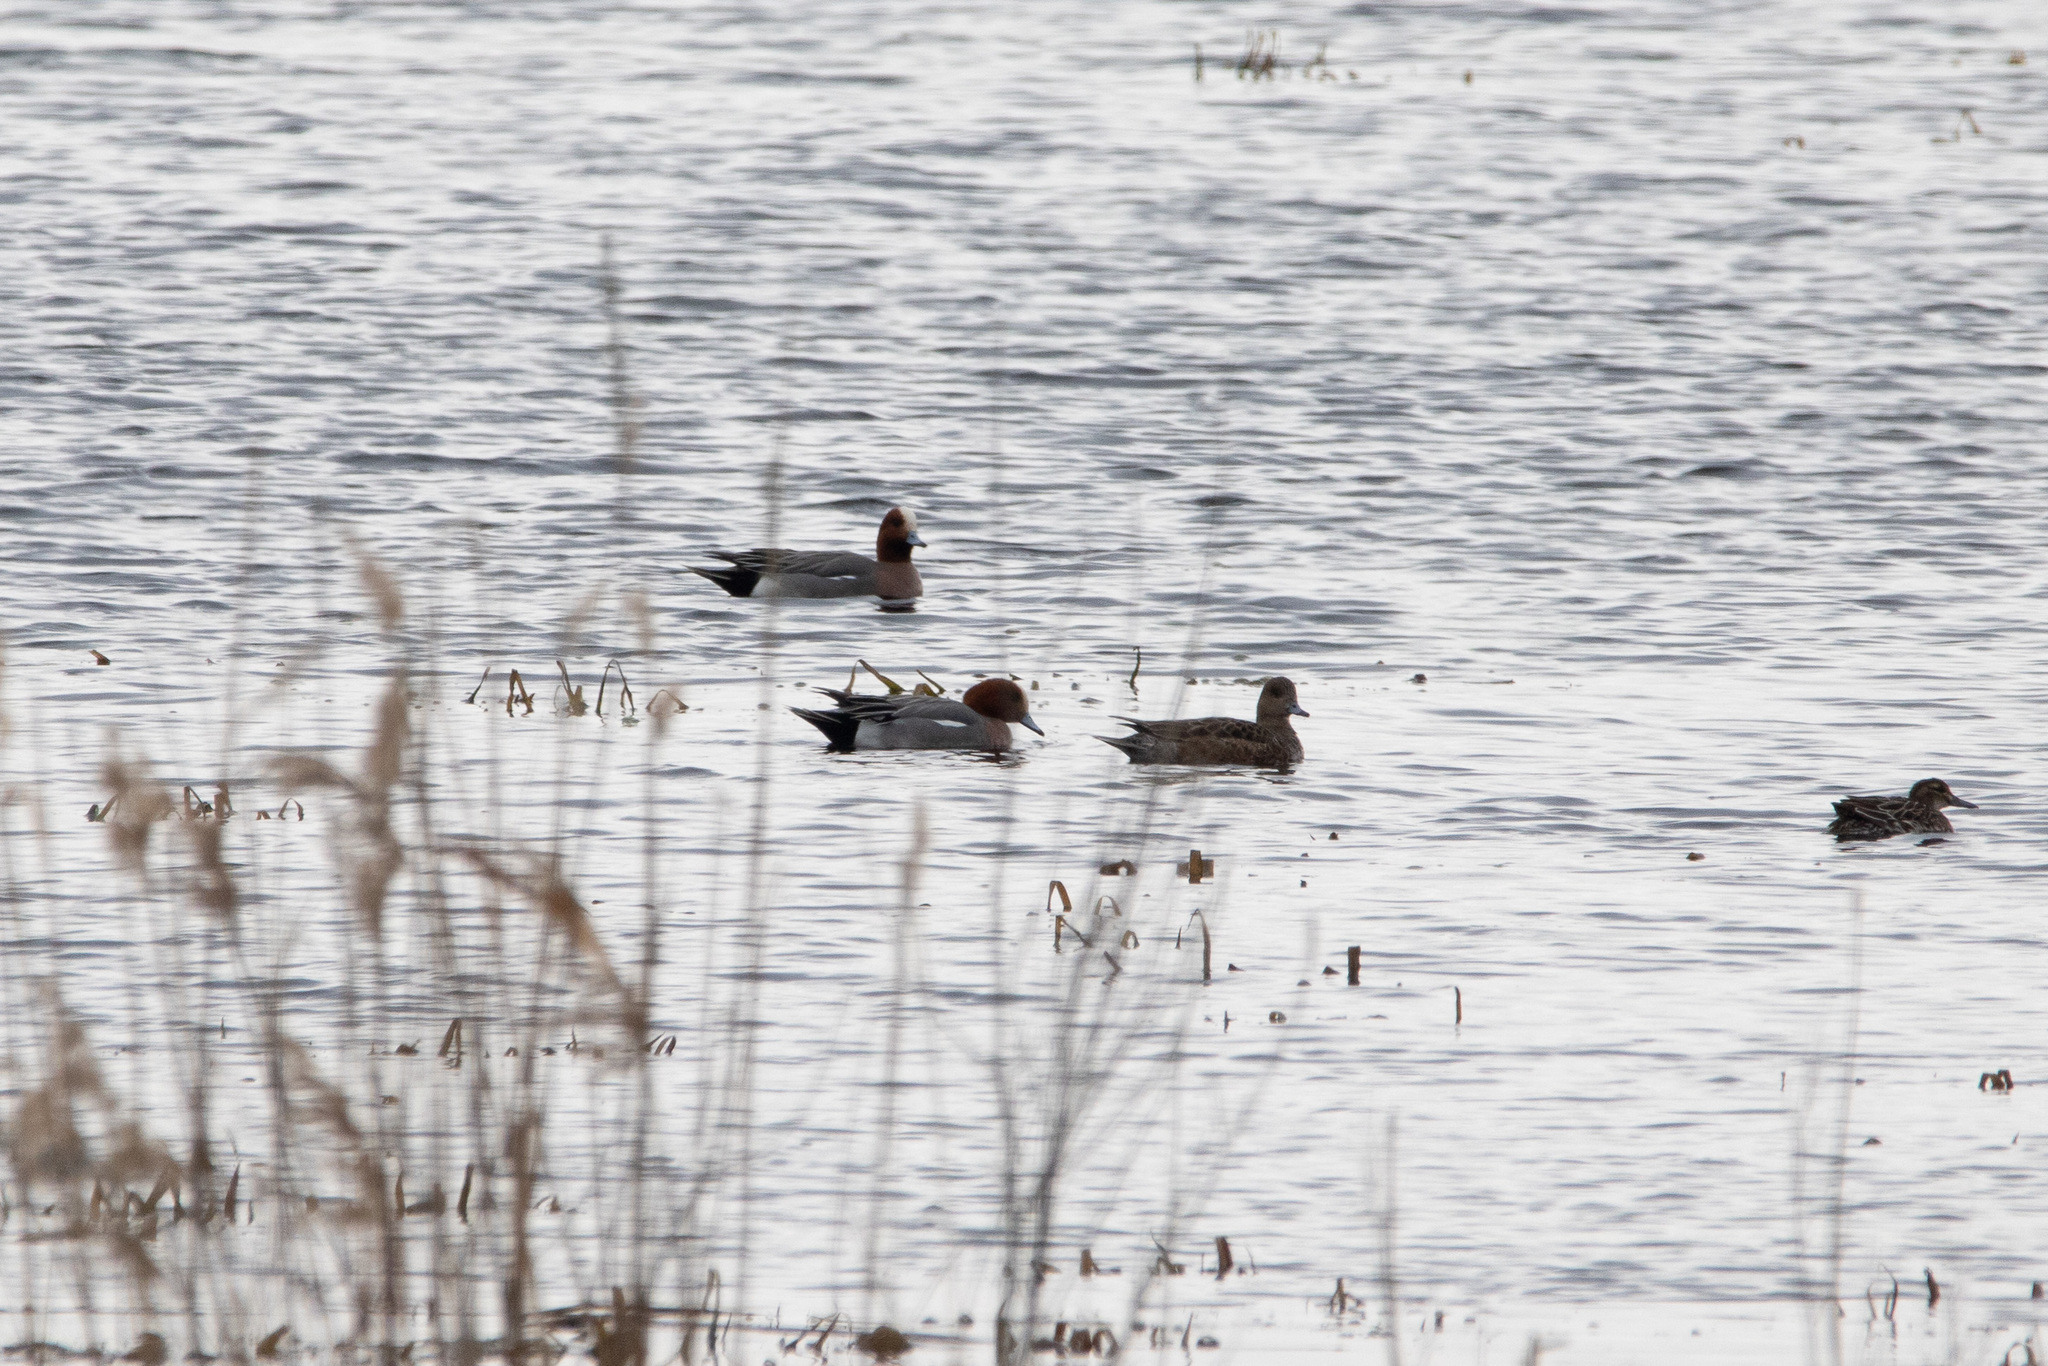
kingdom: Animalia
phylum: Chordata
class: Aves
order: Anseriformes
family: Anatidae
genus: Mareca
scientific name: Mareca penelope
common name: Eurasian wigeon
